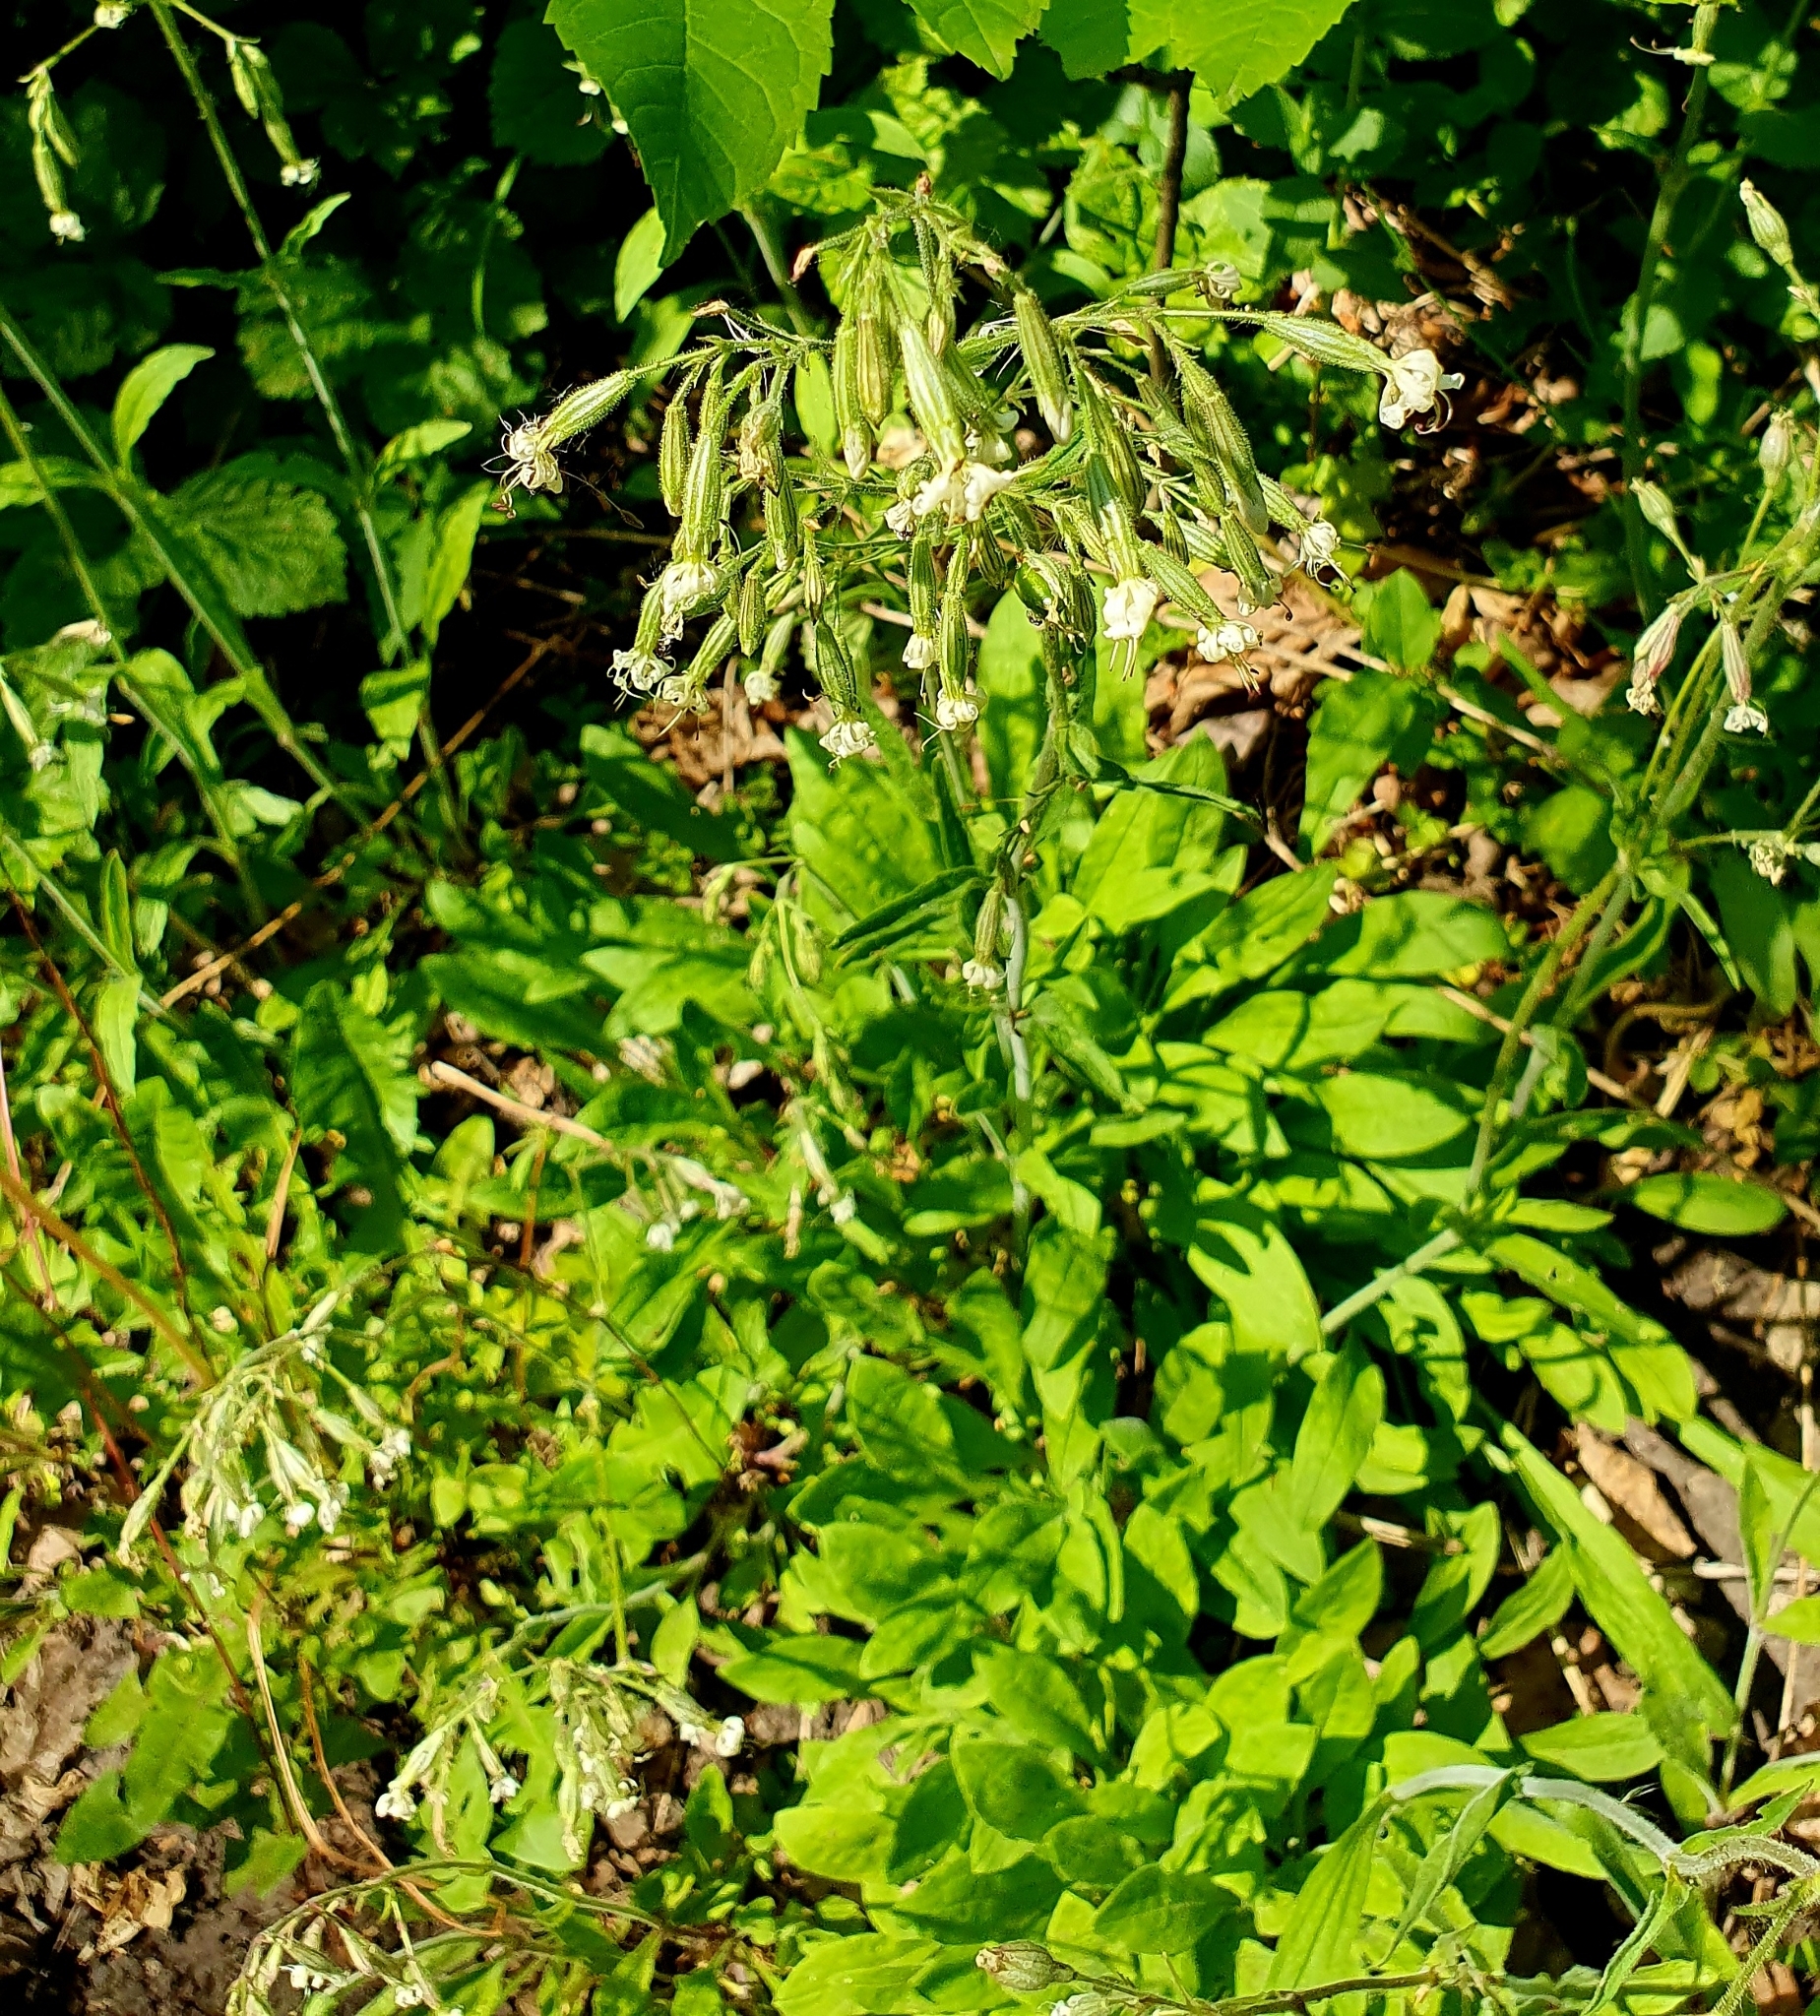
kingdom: Plantae
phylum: Tracheophyta
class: Magnoliopsida
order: Caryophyllales
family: Caryophyllaceae
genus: Silene
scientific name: Silene nutans
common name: Nottingham catchfly
